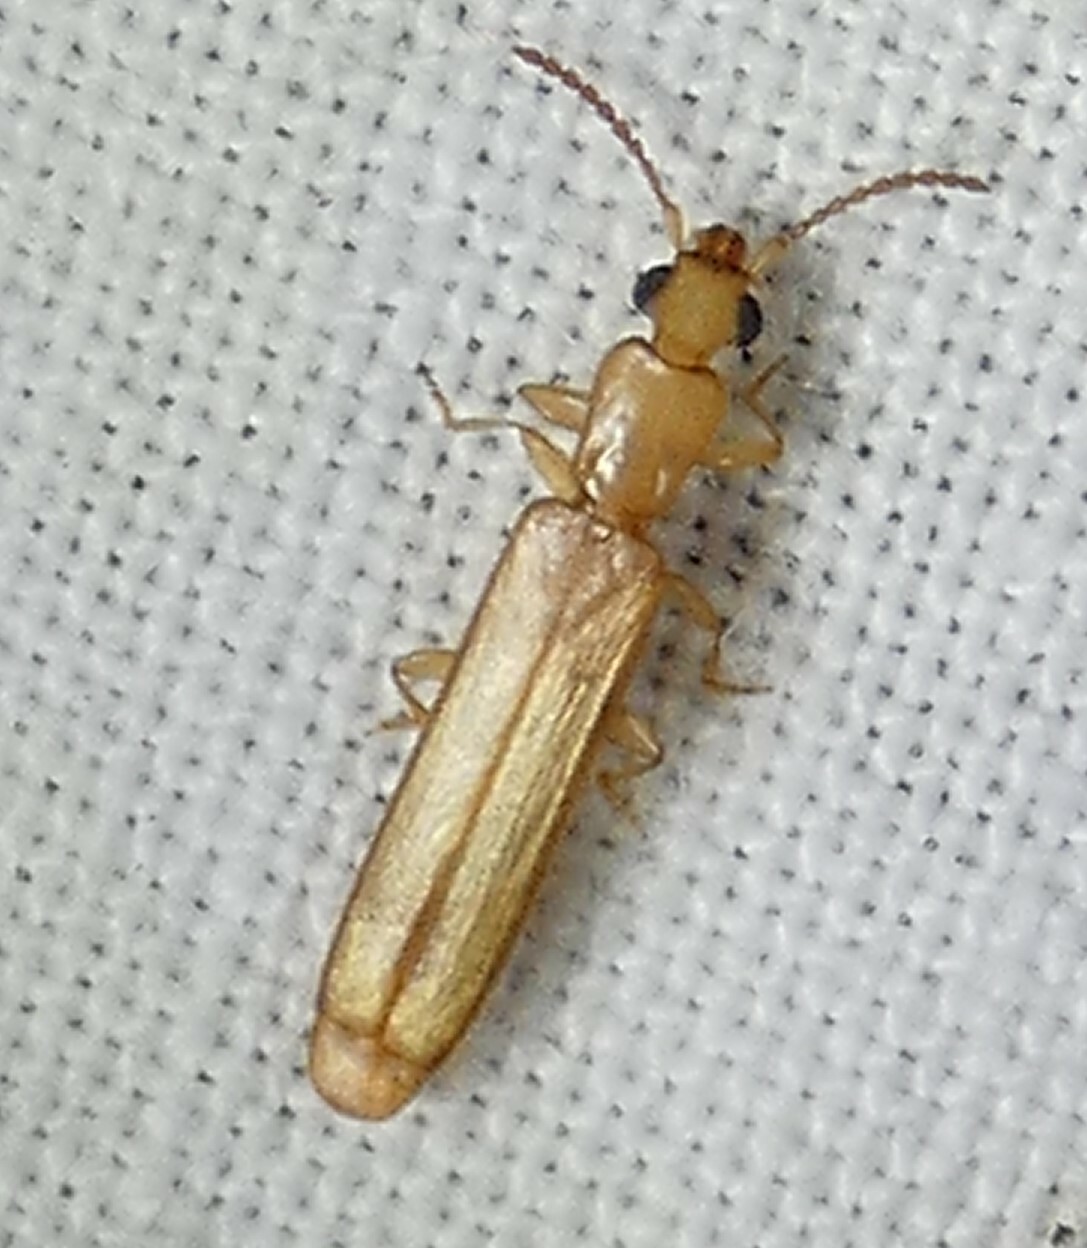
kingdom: Animalia
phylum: Arthropoda
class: Insecta
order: Coleoptera
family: Mycteridae
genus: Hemipeplus
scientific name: Hemipeplus marginipennis
